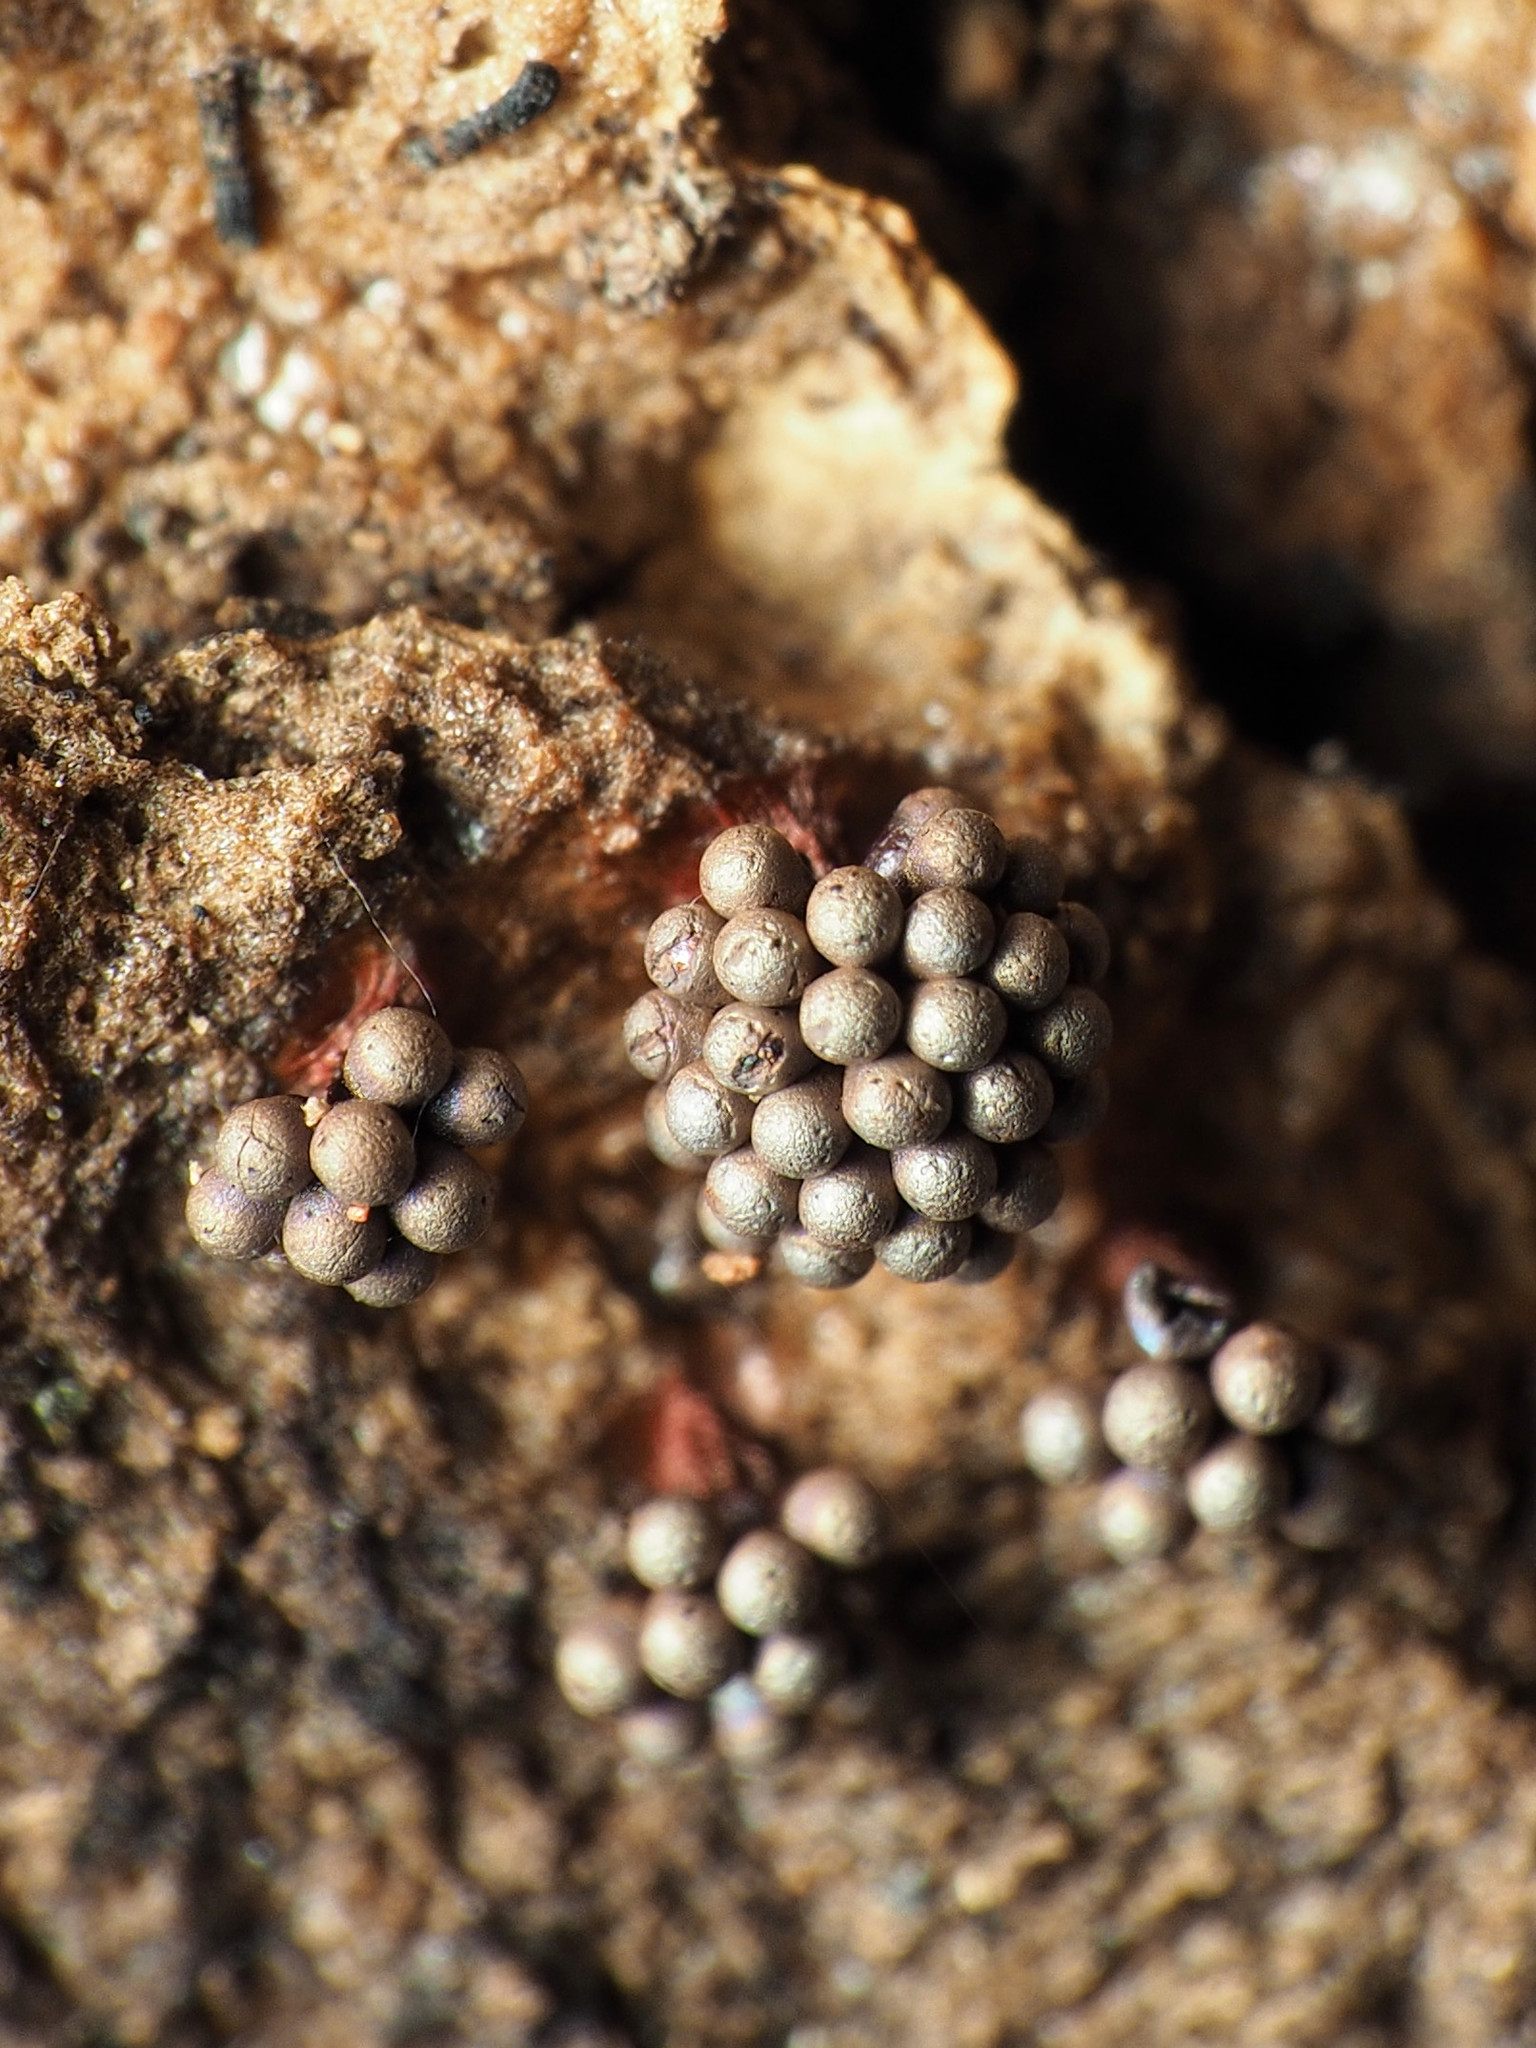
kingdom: Protozoa
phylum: Mycetozoa
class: Myxomycetes
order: Trichiales
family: Trichiaceae
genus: Metatrichia
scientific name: Metatrichia vesparia
